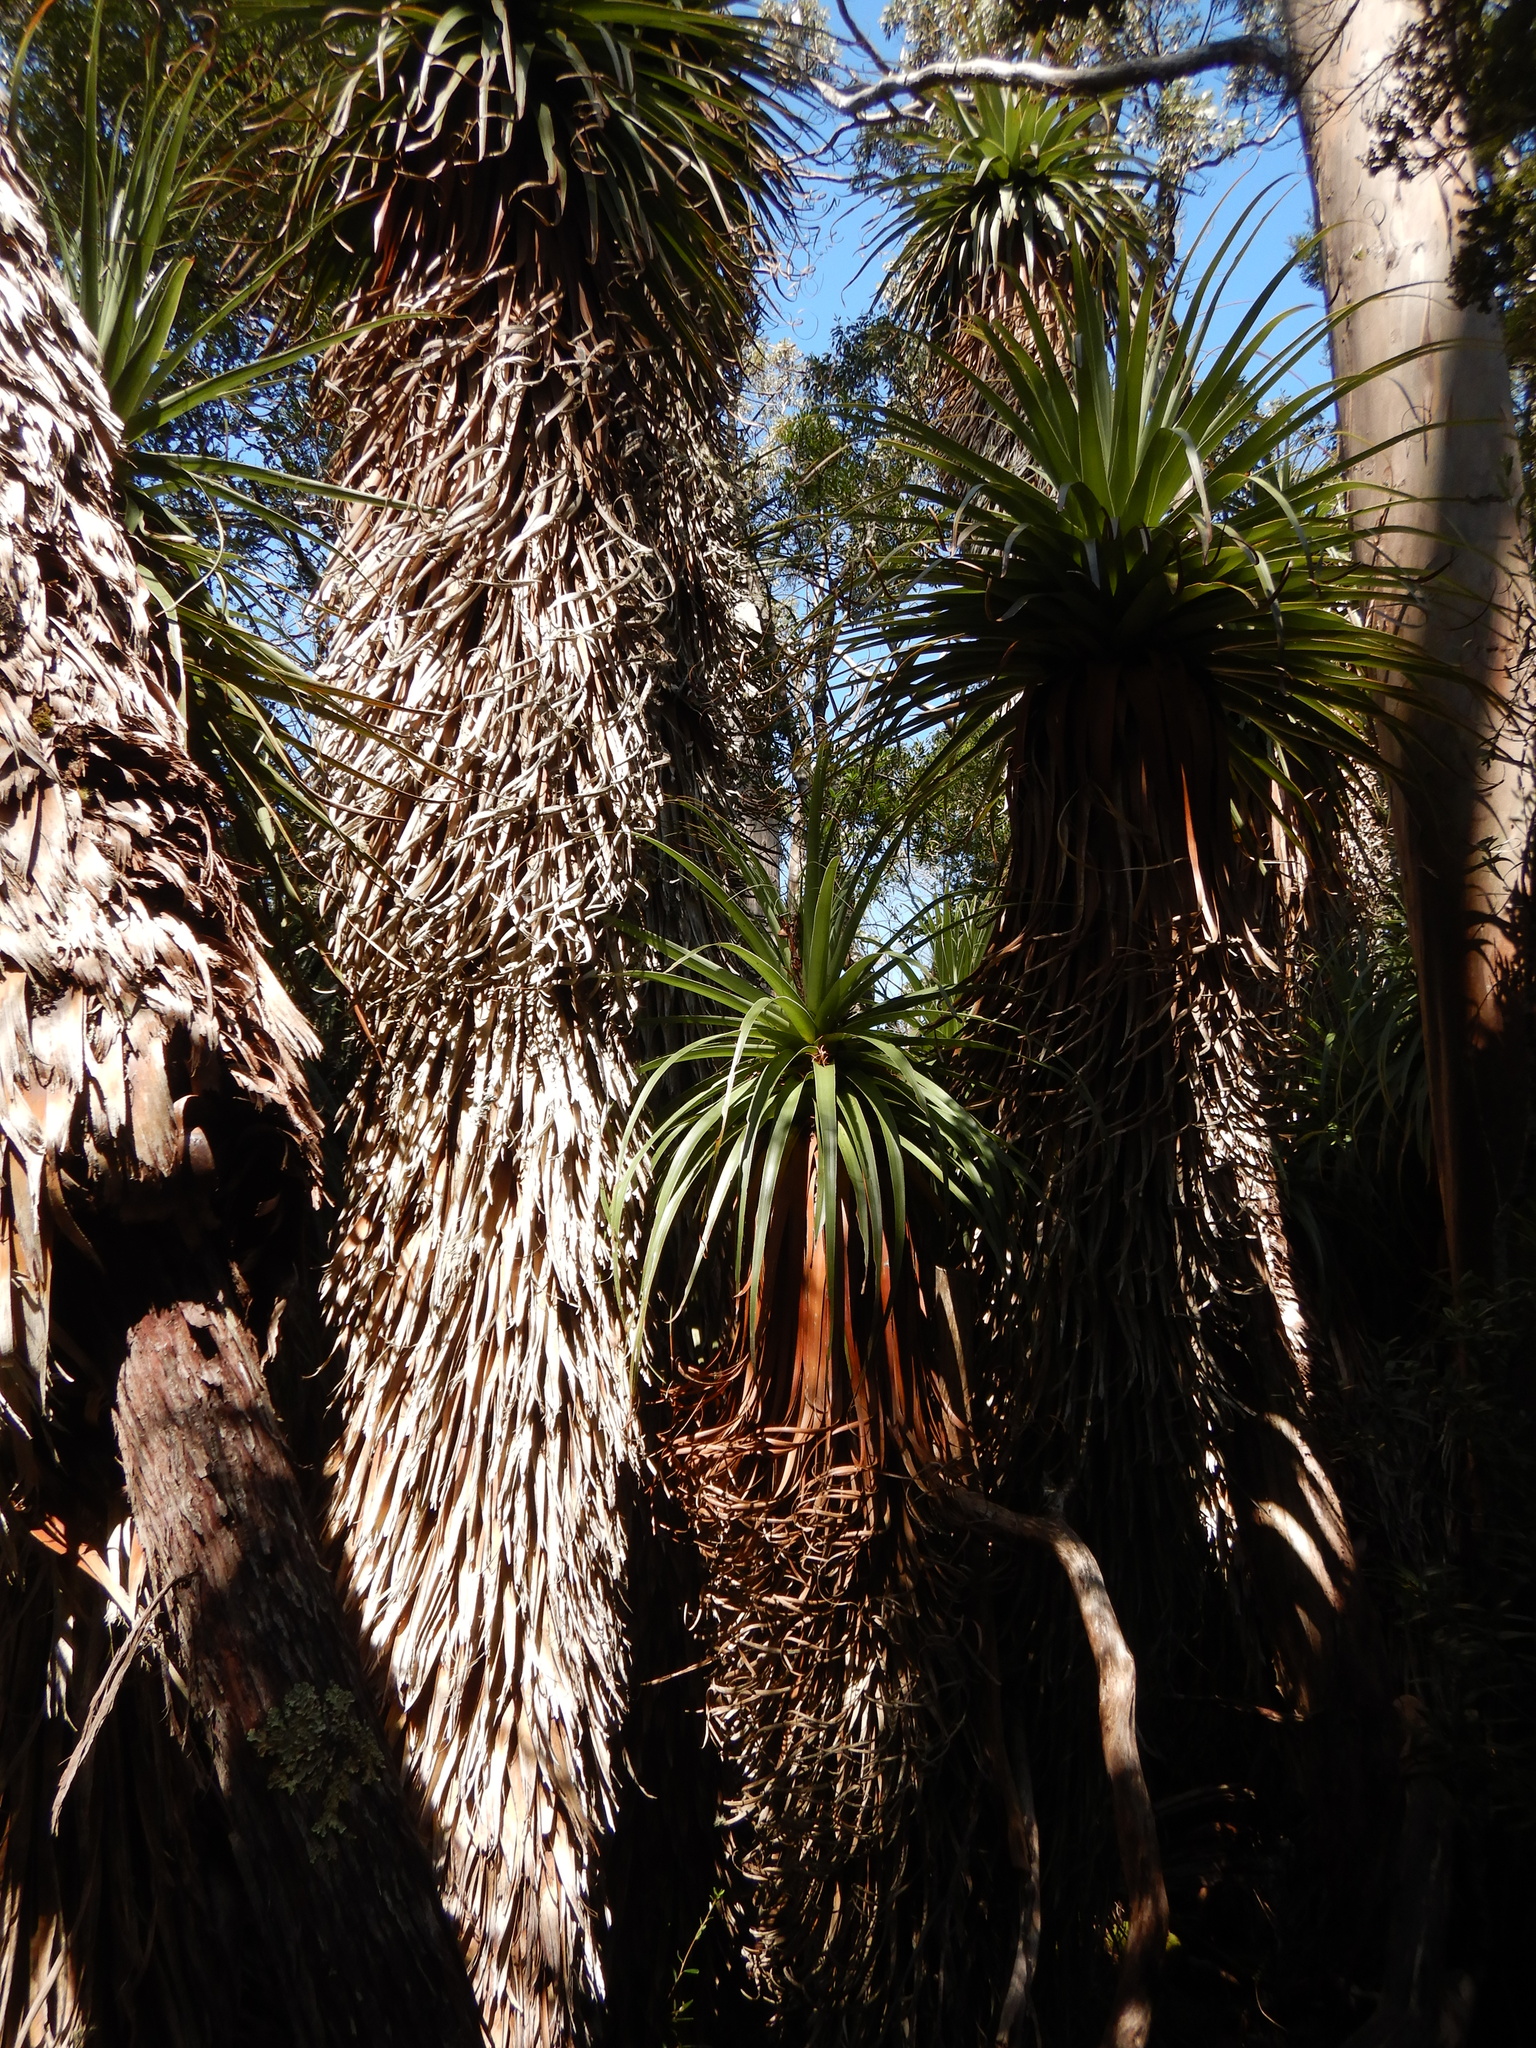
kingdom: Plantae
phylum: Tracheophyta
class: Magnoliopsida
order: Ericales
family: Ericaceae
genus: Dracophyllum
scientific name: Dracophyllum pandanifolium
